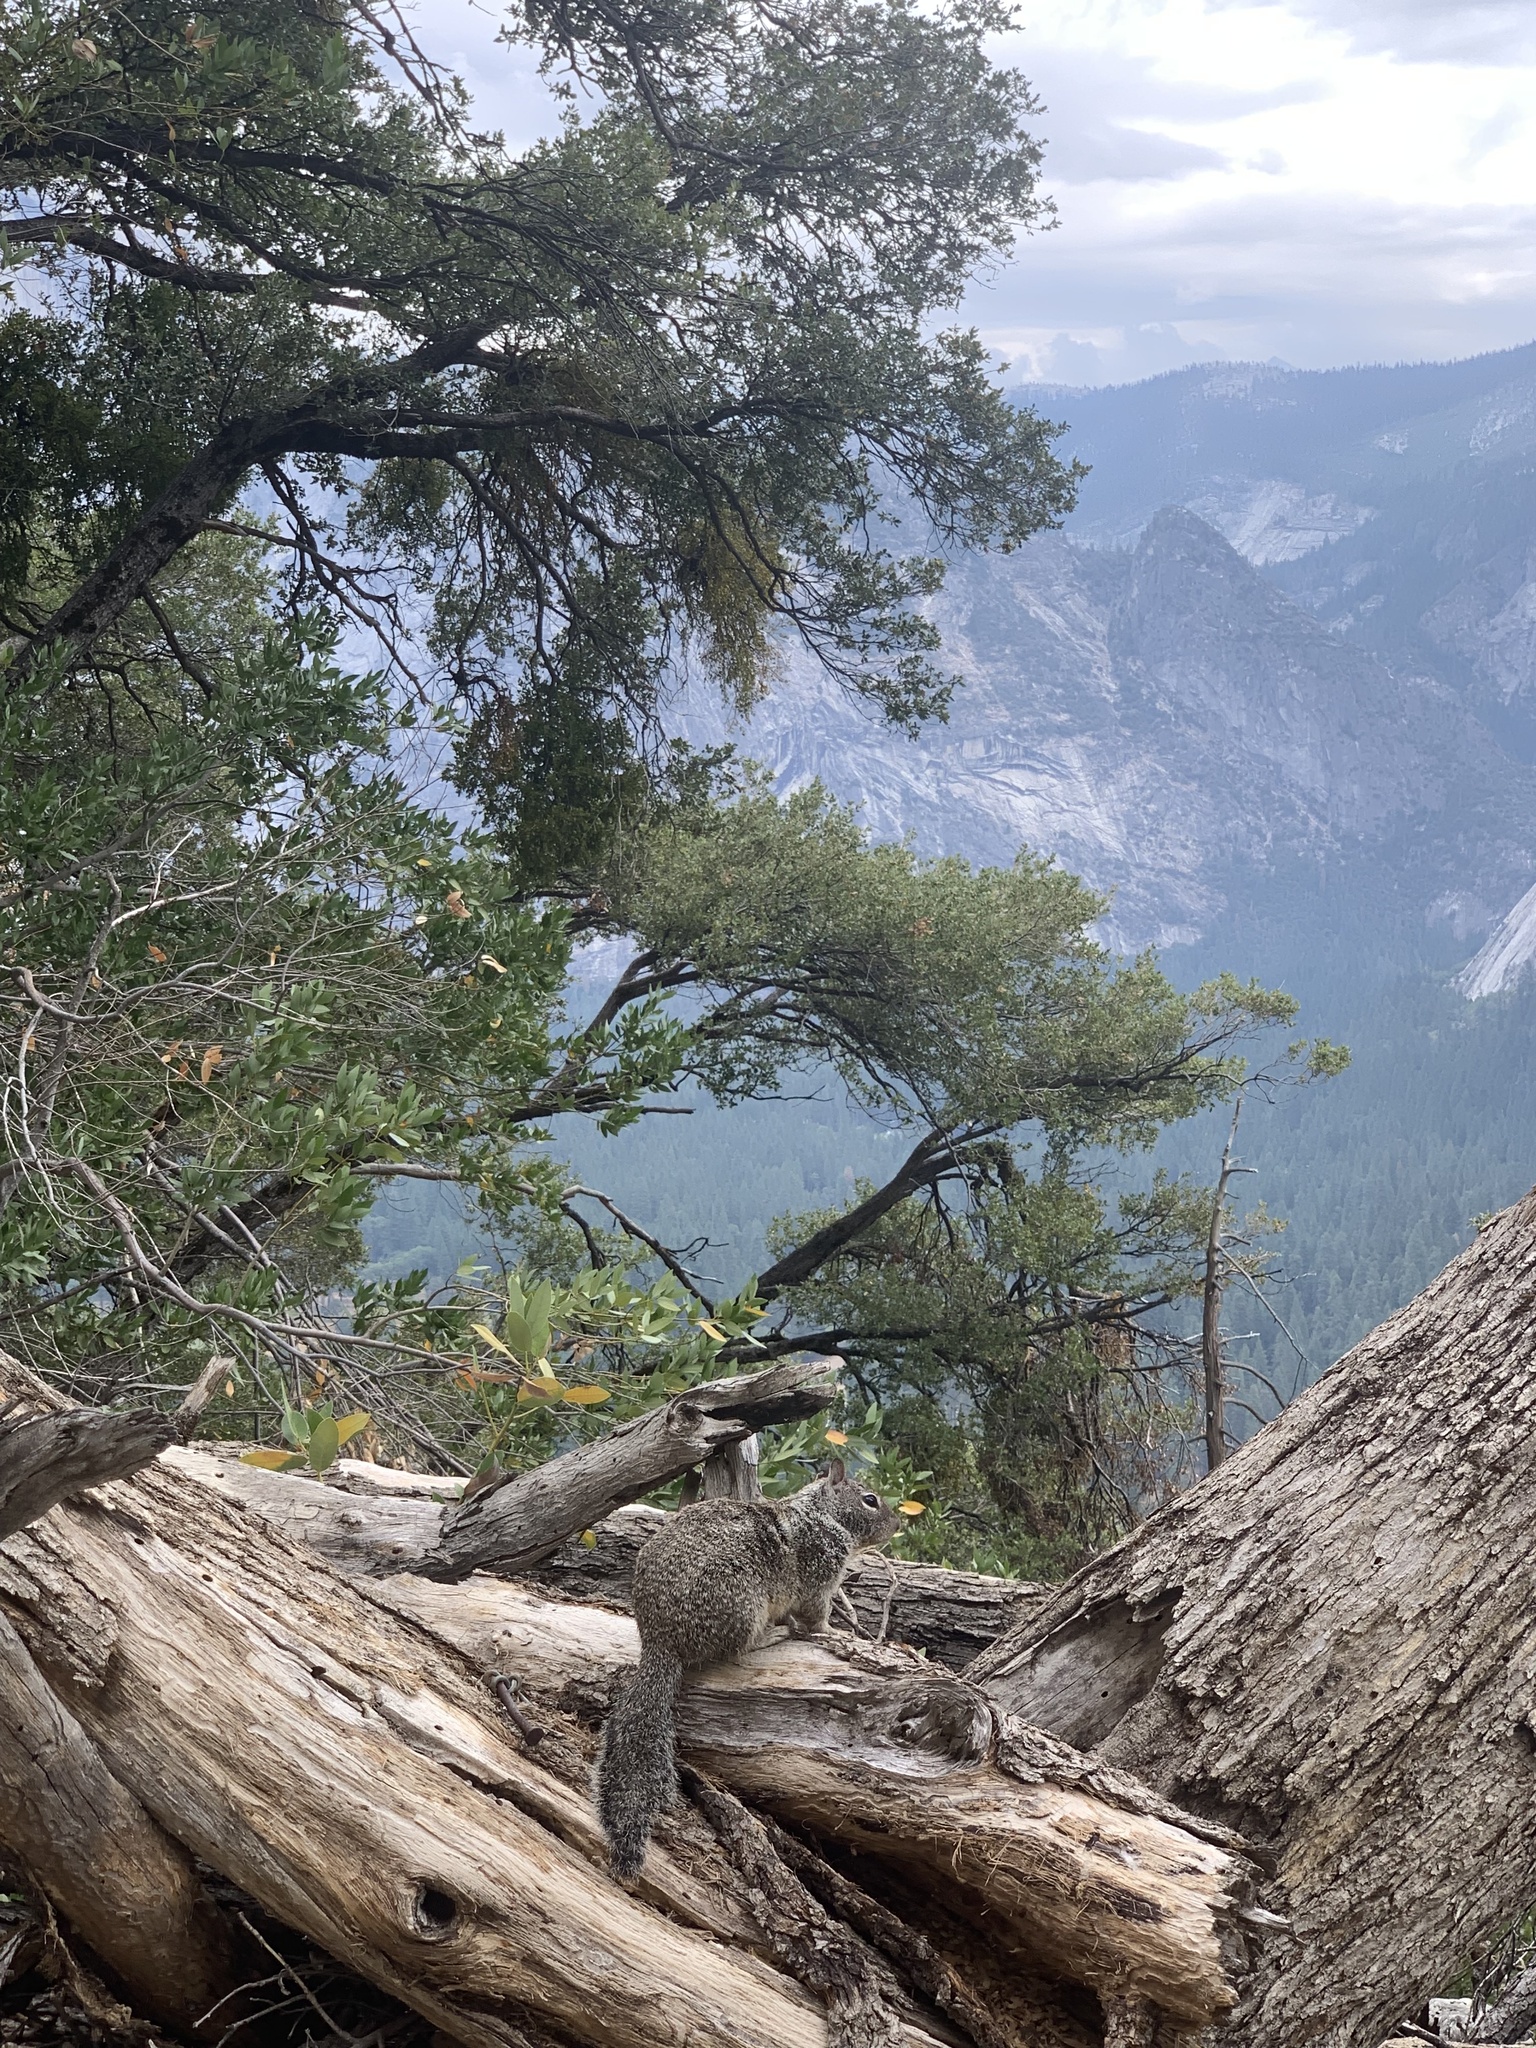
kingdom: Animalia
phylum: Chordata
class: Mammalia
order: Rodentia
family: Sciuridae
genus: Otospermophilus
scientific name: Otospermophilus beecheyi
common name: California ground squirrel
